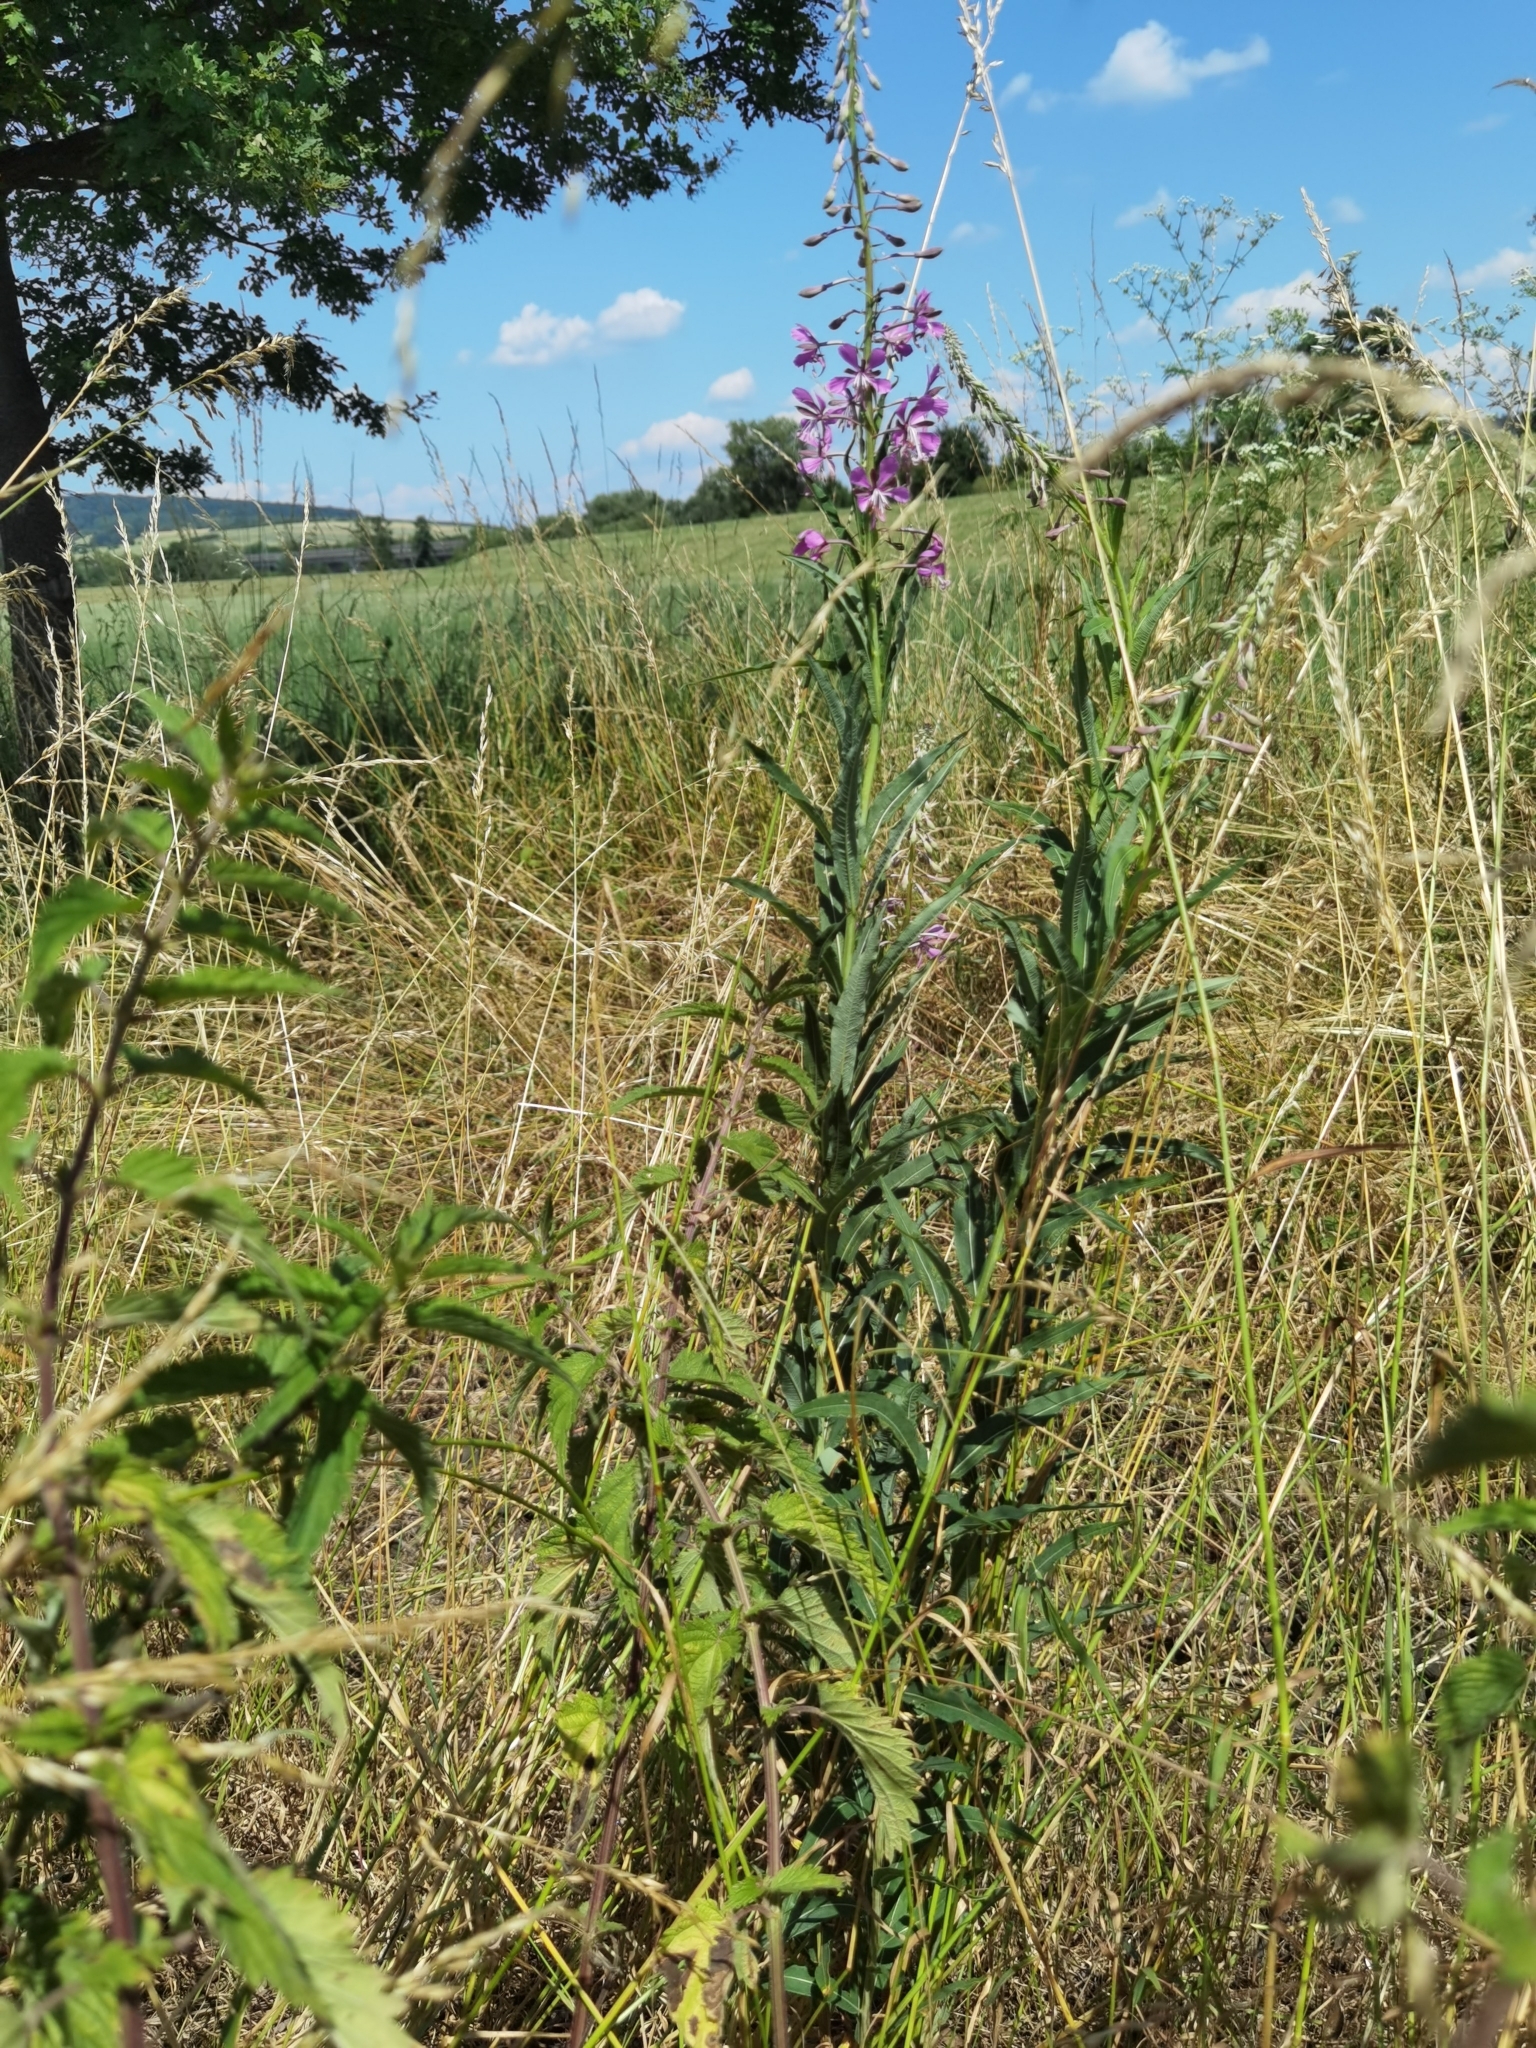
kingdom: Plantae
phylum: Tracheophyta
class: Magnoliopsida
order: Myrtales
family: Onagraceae
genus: Chamaenerion
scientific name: Chamaenerion angustifolium
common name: Fireweed
